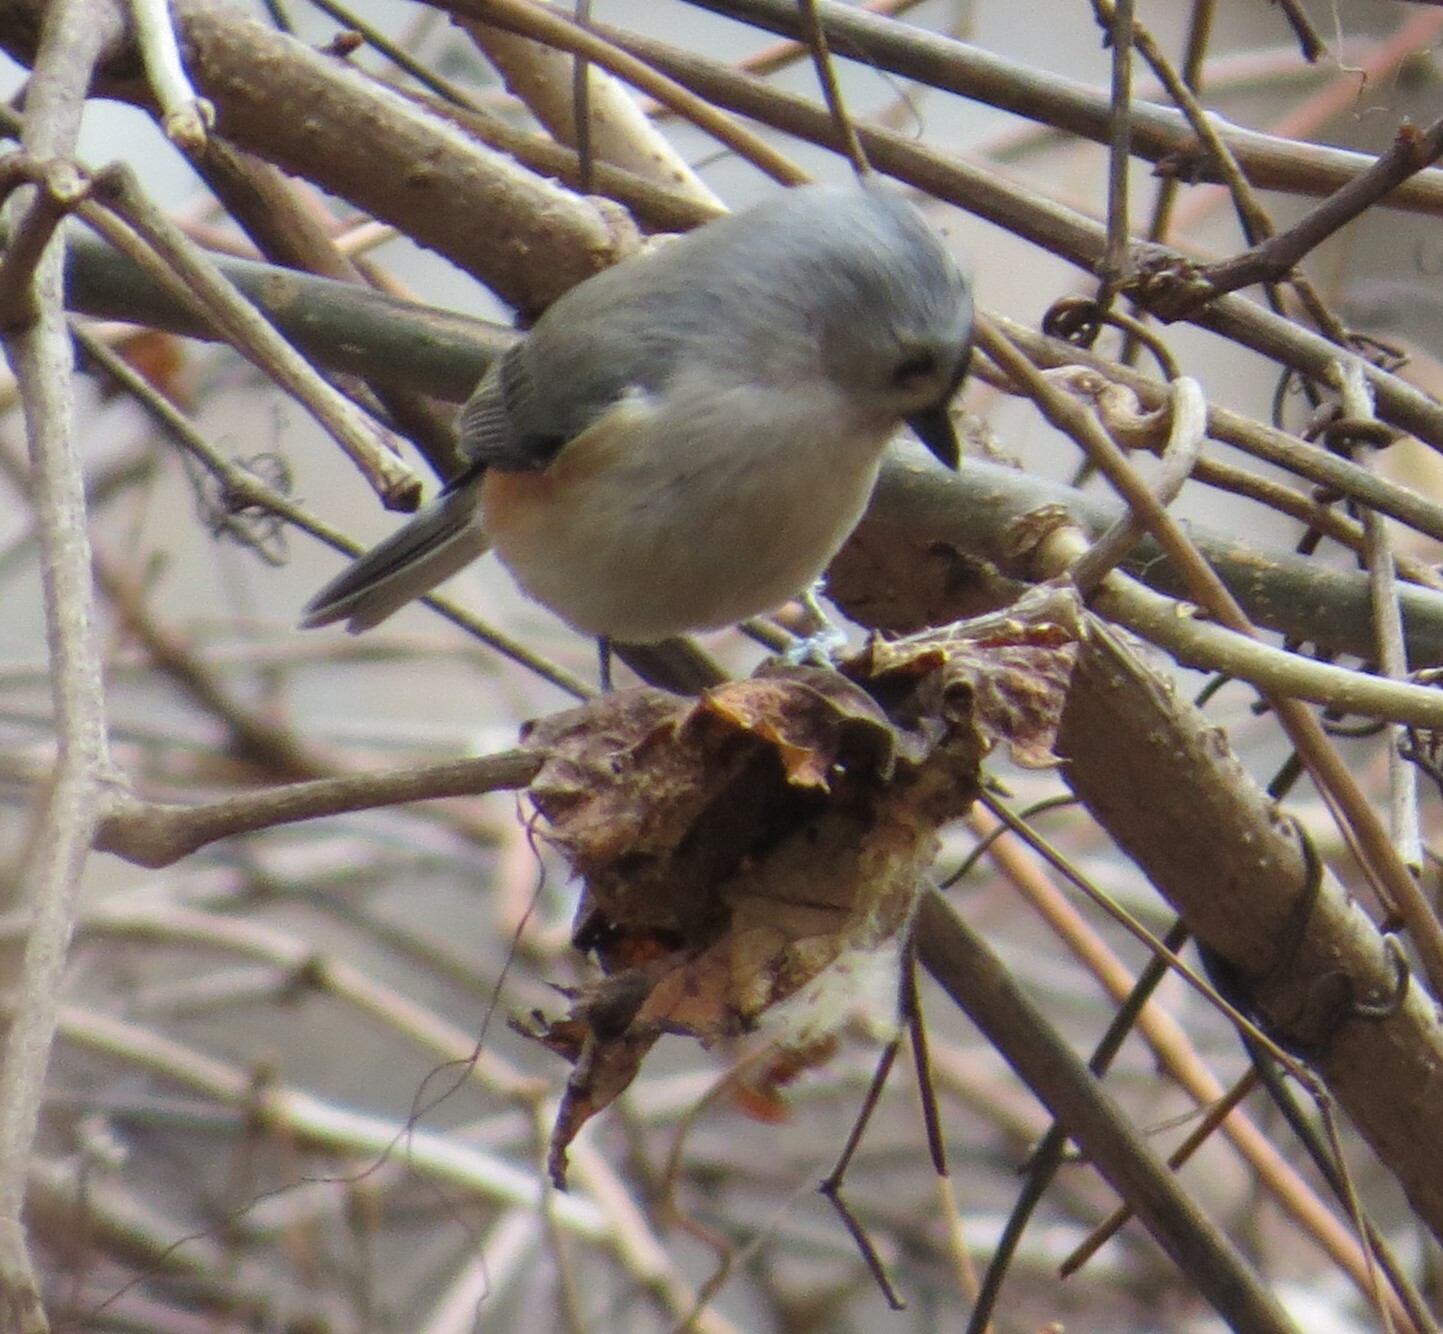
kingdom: Animalia
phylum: Chordata
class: Aves
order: Passeriformes
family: Paridae
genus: Baeolophus
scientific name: Baeolophus bicolor
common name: Tufted titmouse
